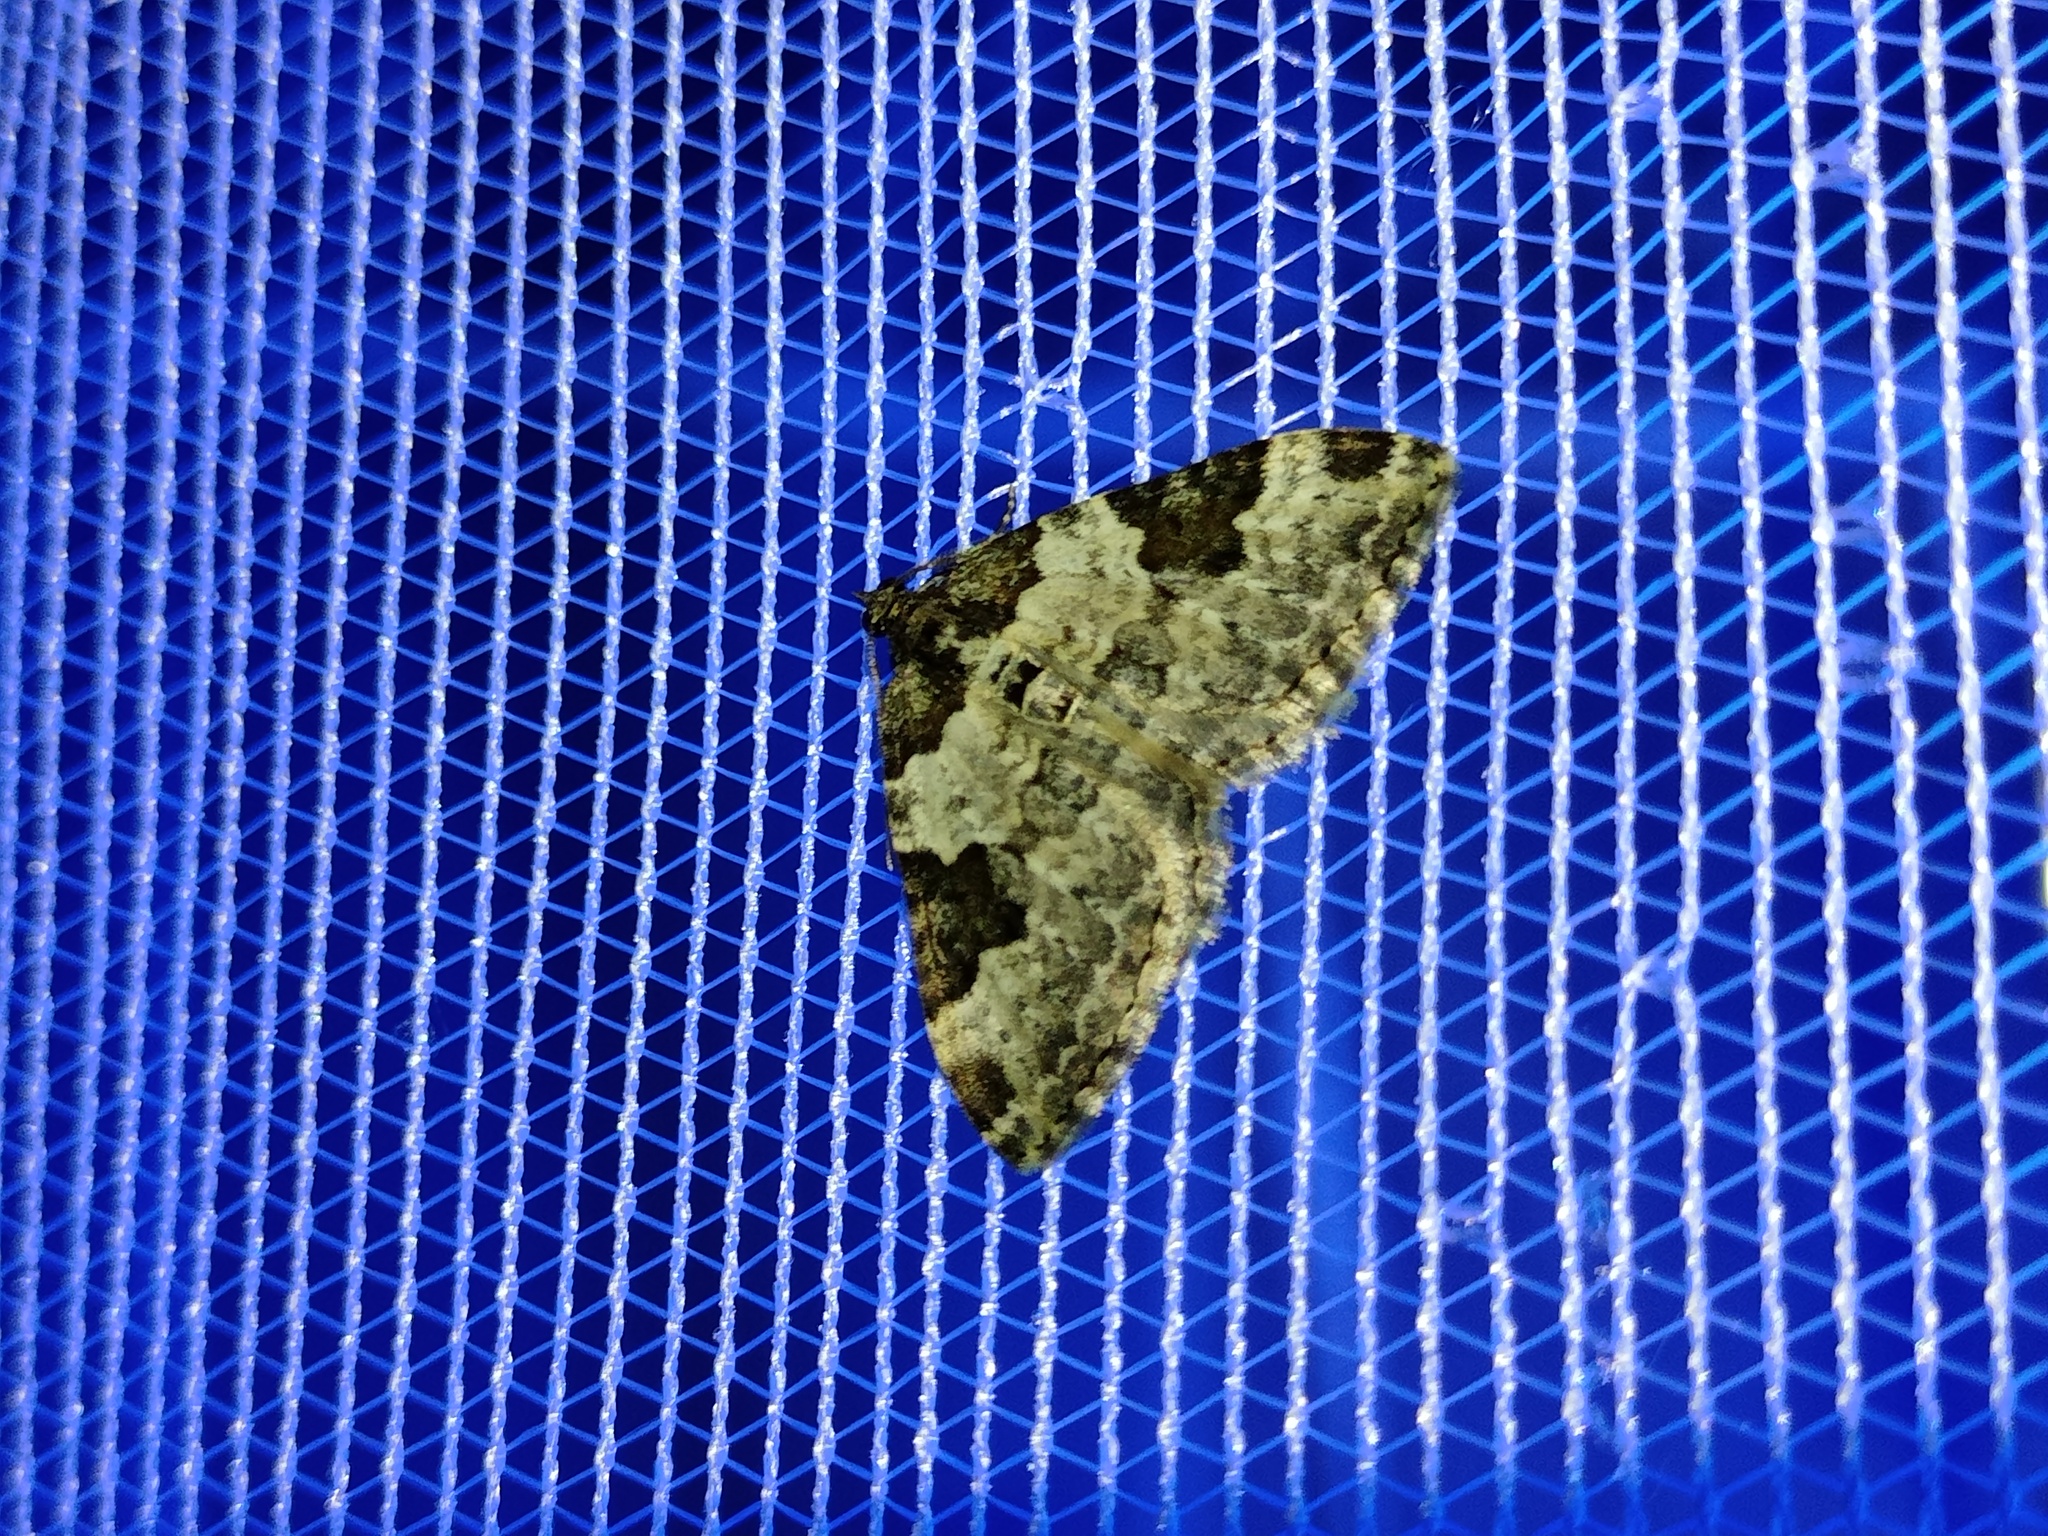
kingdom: Animalia
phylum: Arthropoda
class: Insecta
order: Lepidoptera
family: Geometridae
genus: Xanthorhoe
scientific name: Xanthorhoe fluctuata
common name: Garden carpet
